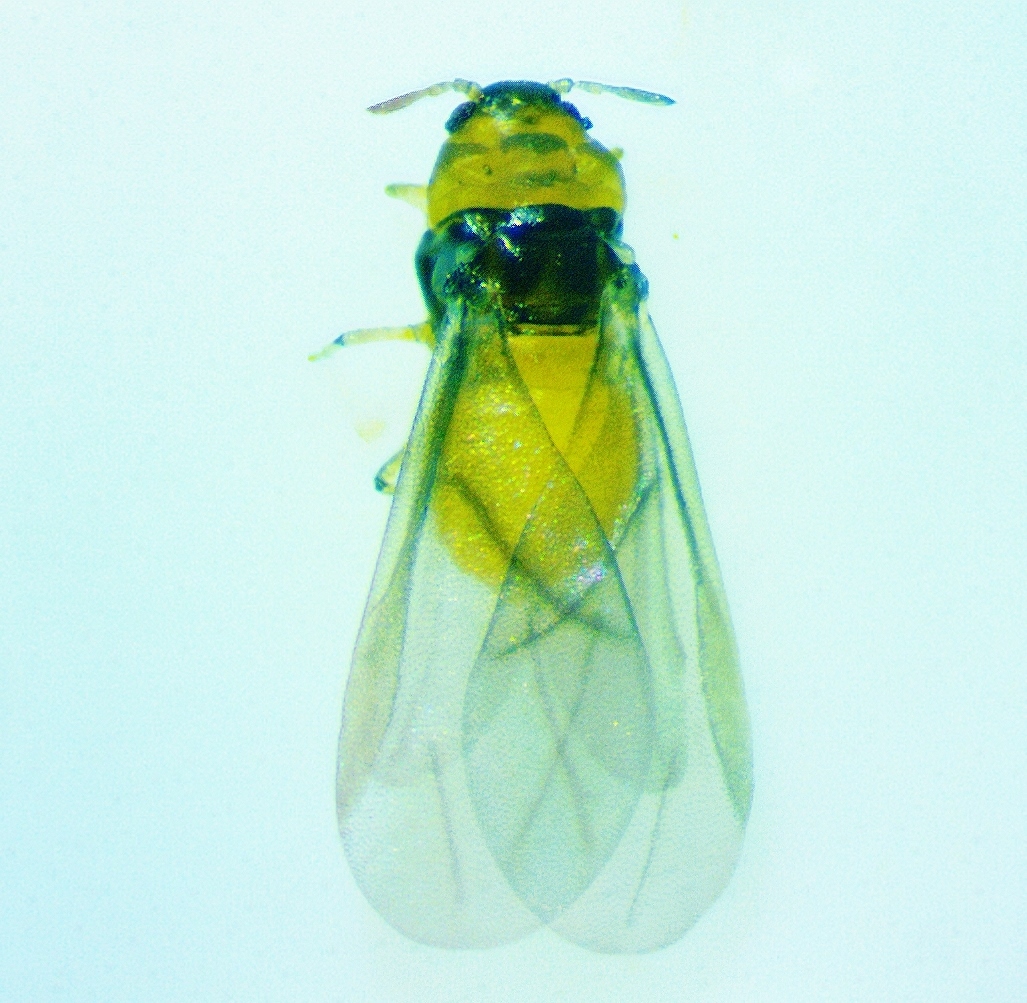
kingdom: Animalia
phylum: Arthropoda
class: Insecta
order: Hemiptera
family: Phylloxeridae
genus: Phylloxera
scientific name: Phylloxera caryae-scissa
